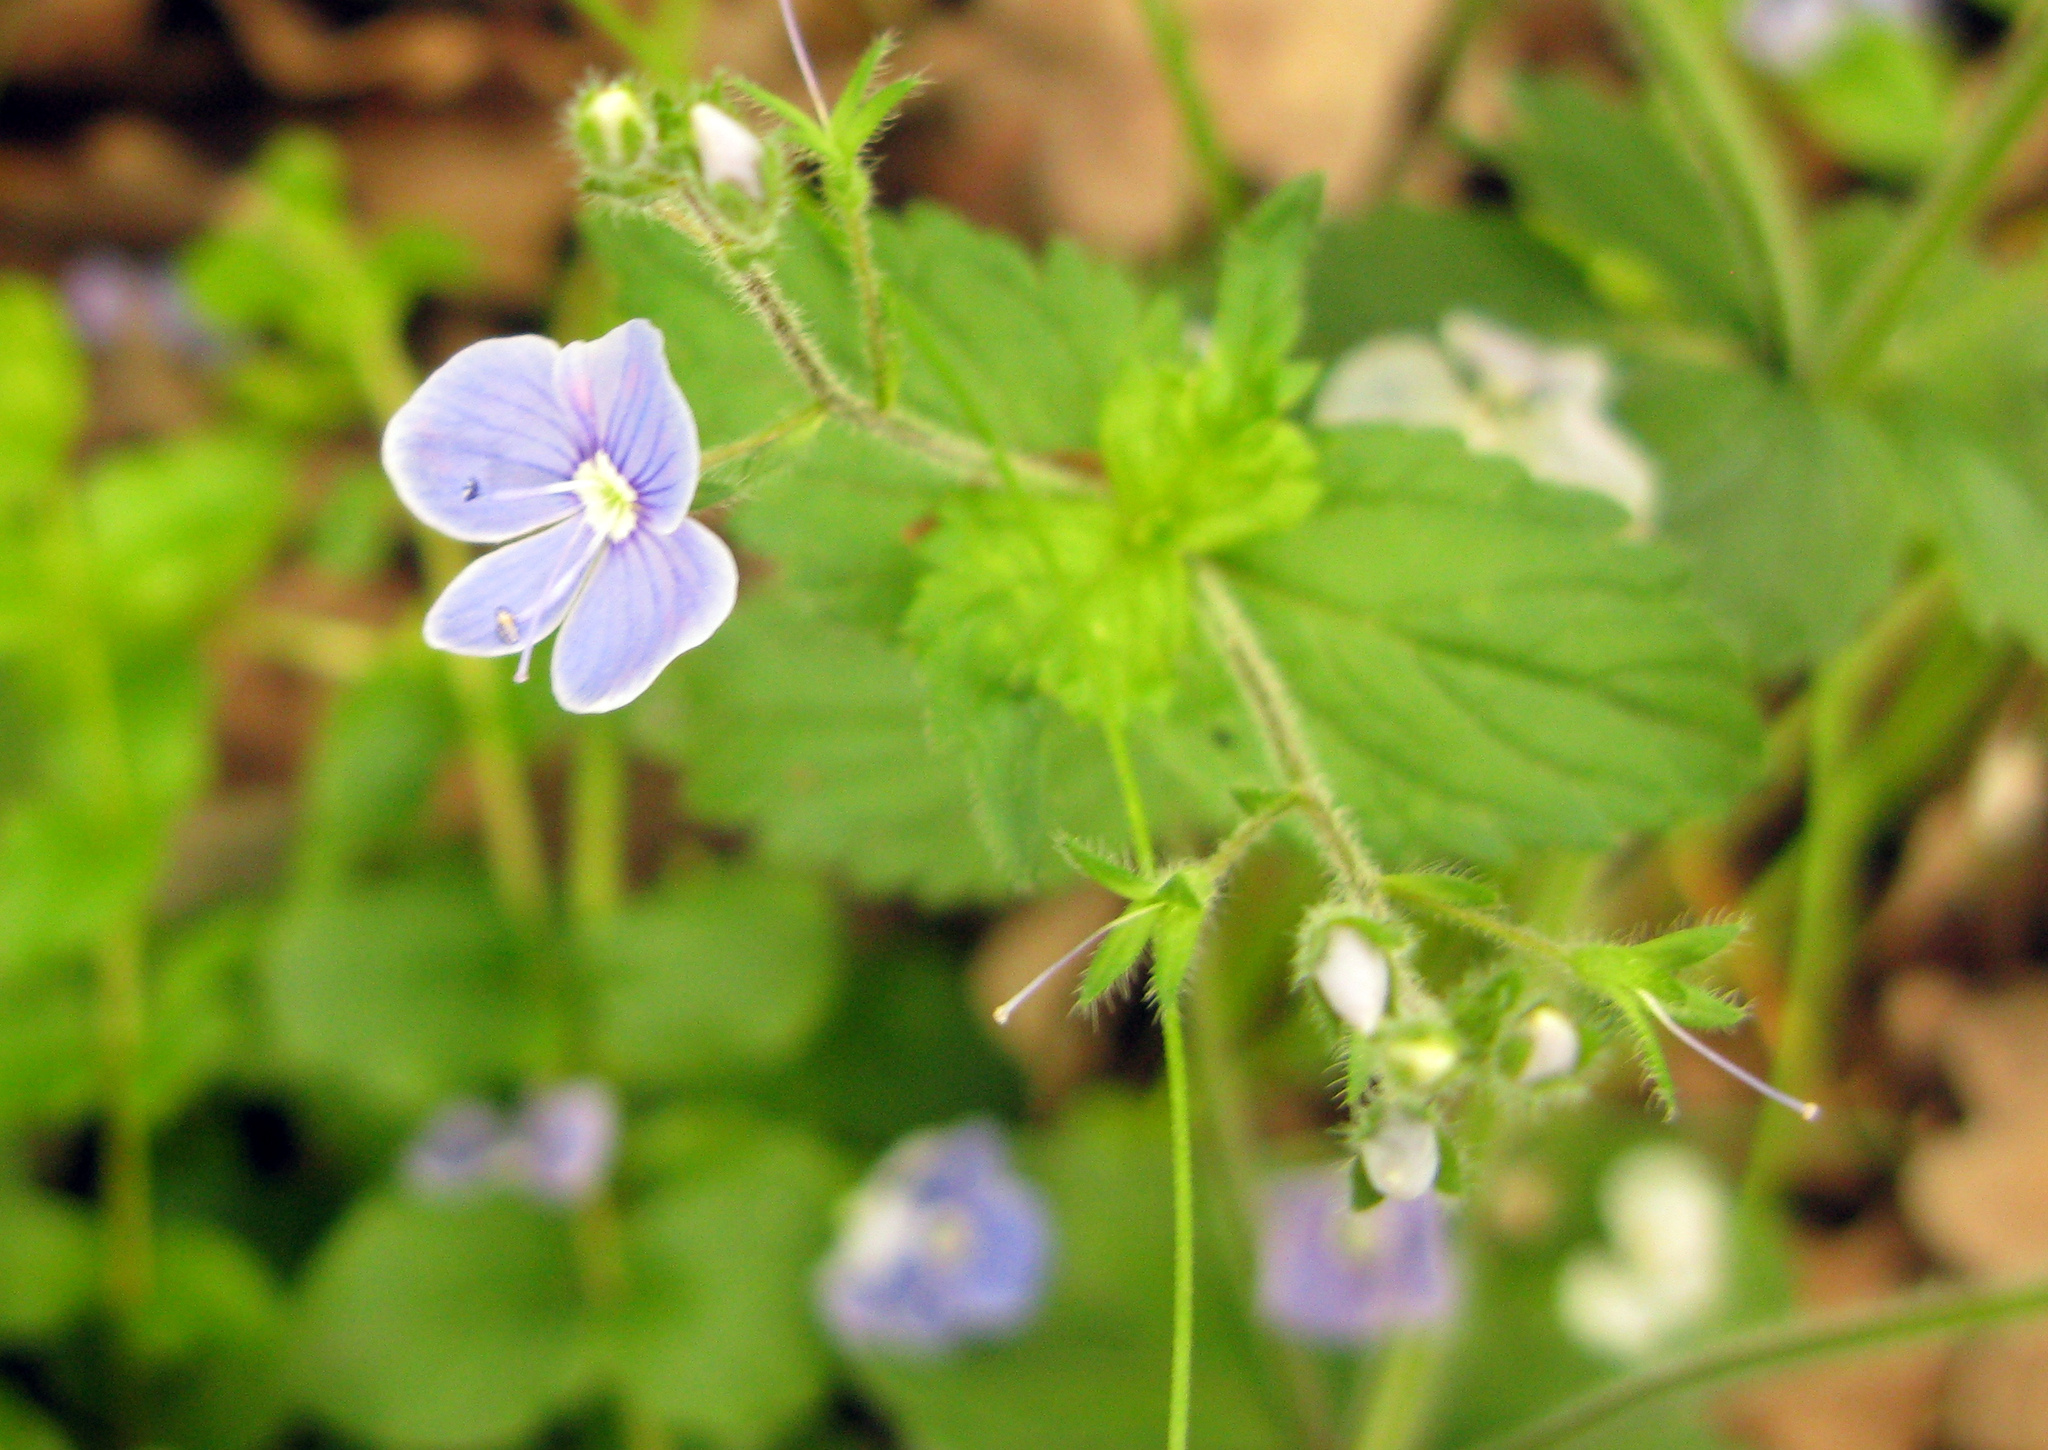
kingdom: Plantae
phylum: Tracheophyta
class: Magnoliopsida
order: Lamiales
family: Plantaginaceae
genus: Veronica
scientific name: Veronica chamaedrys
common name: Germander speedwell
